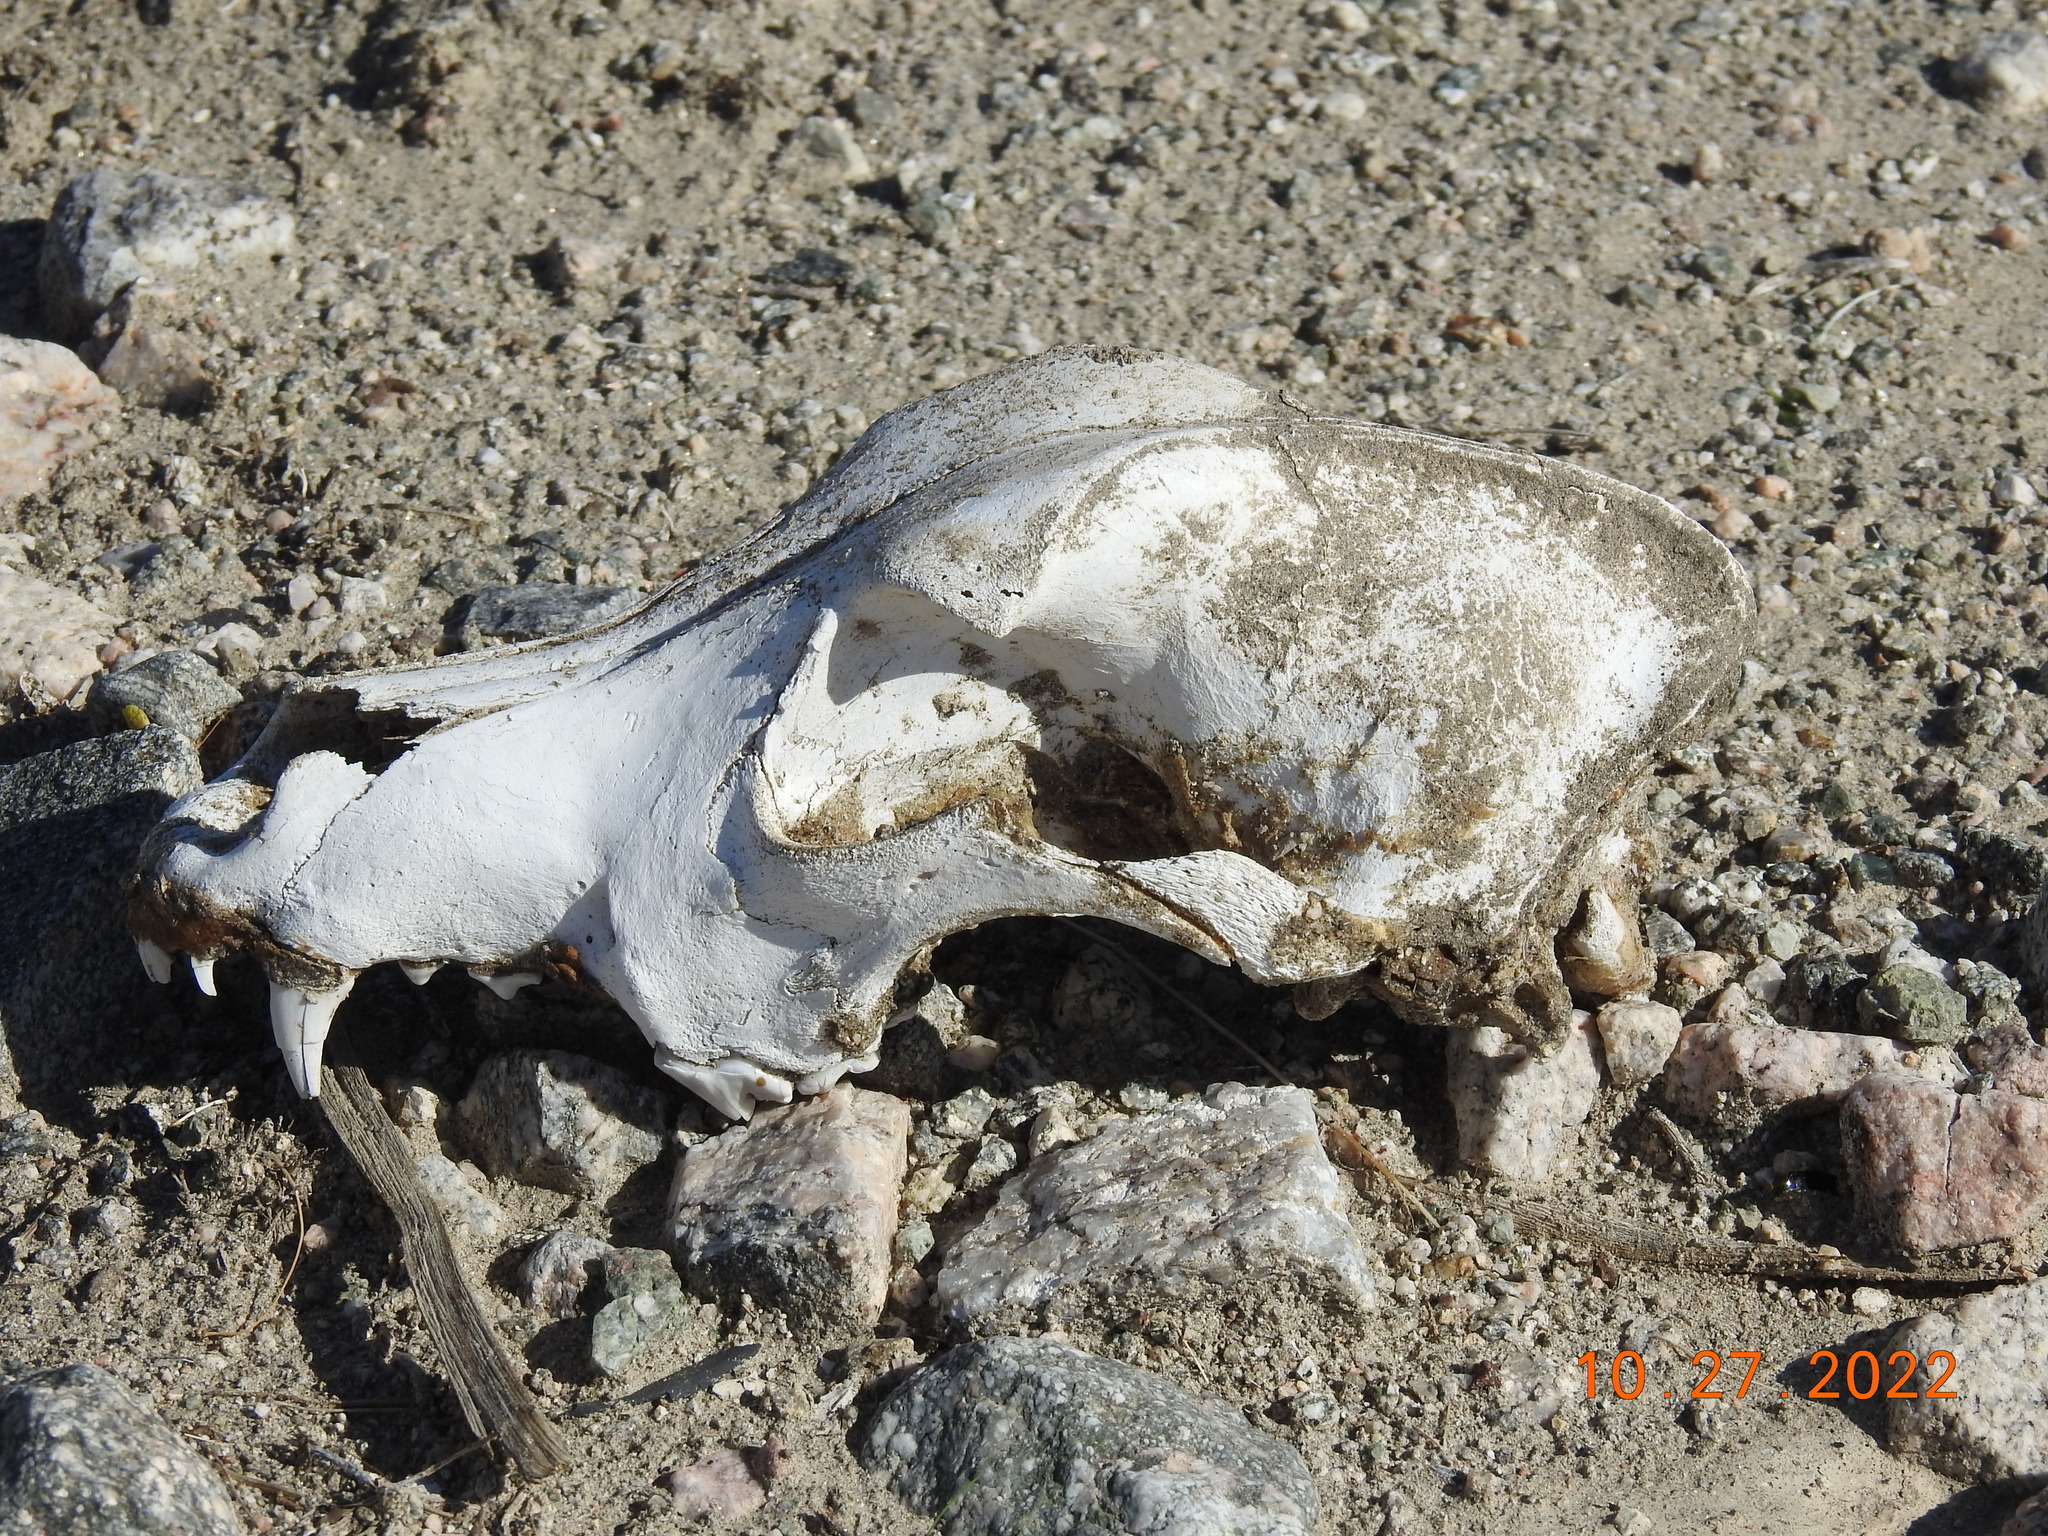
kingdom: Animalia
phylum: Chordata
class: Mammalia
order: Carnivora
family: Canidae
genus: Canis
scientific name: Canis lupus
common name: Gray wolf
